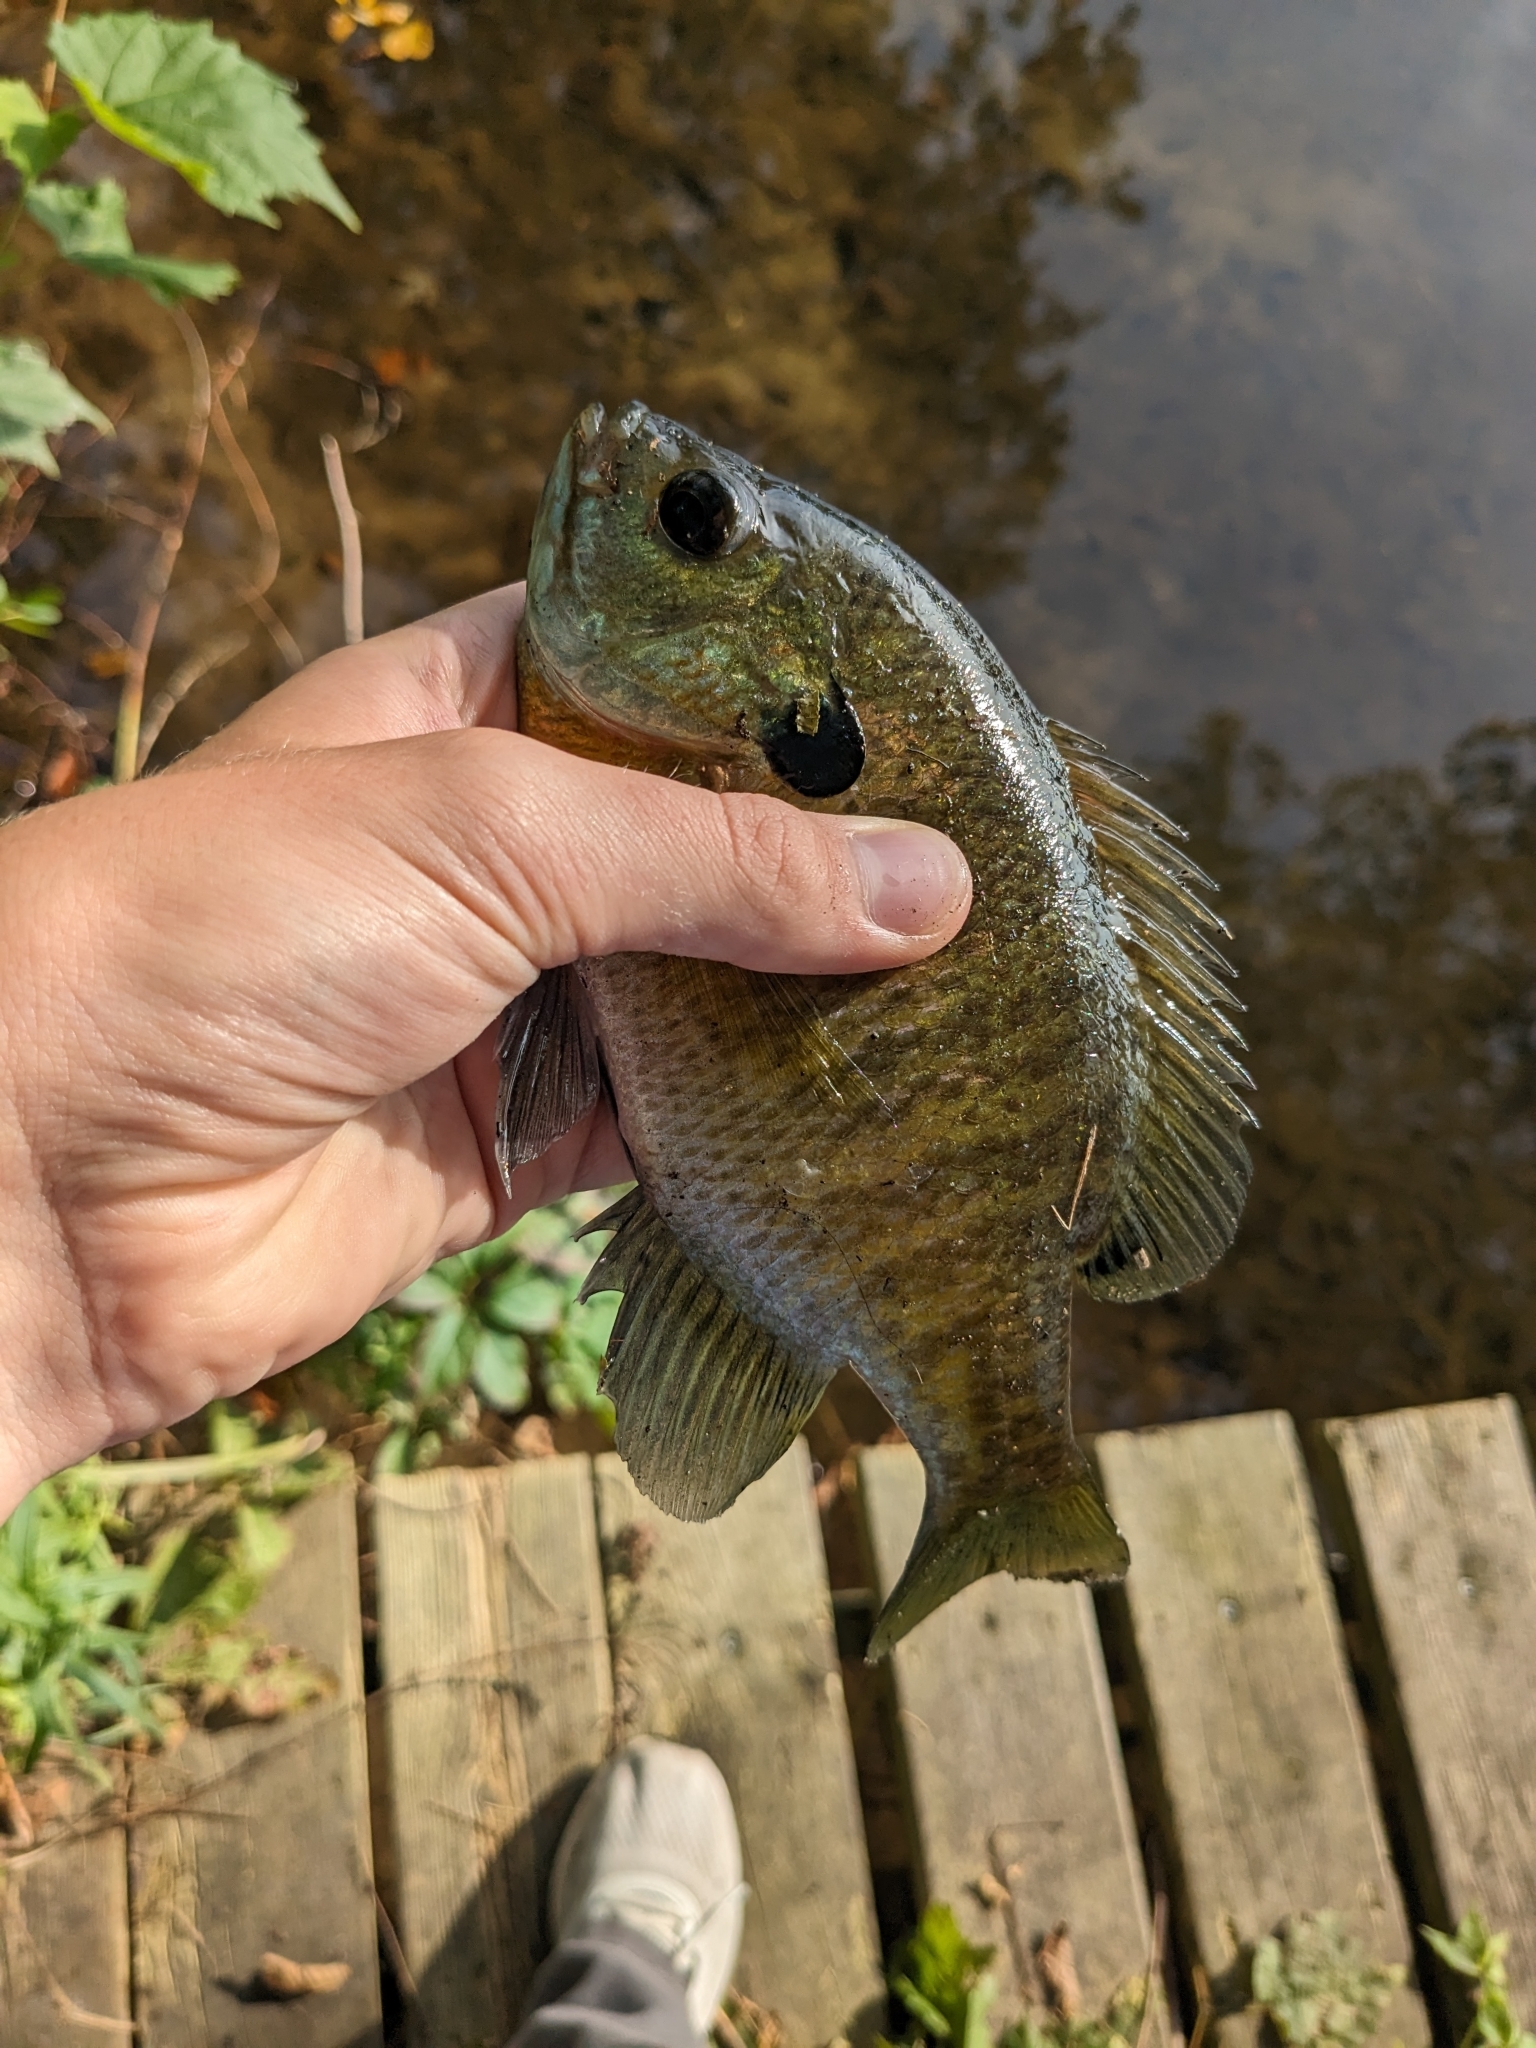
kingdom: Animalia
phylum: Chordata
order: Perciformes
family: Centrarchidae
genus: Lepomis
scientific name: Lepomis macrochirus
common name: Bluegill
